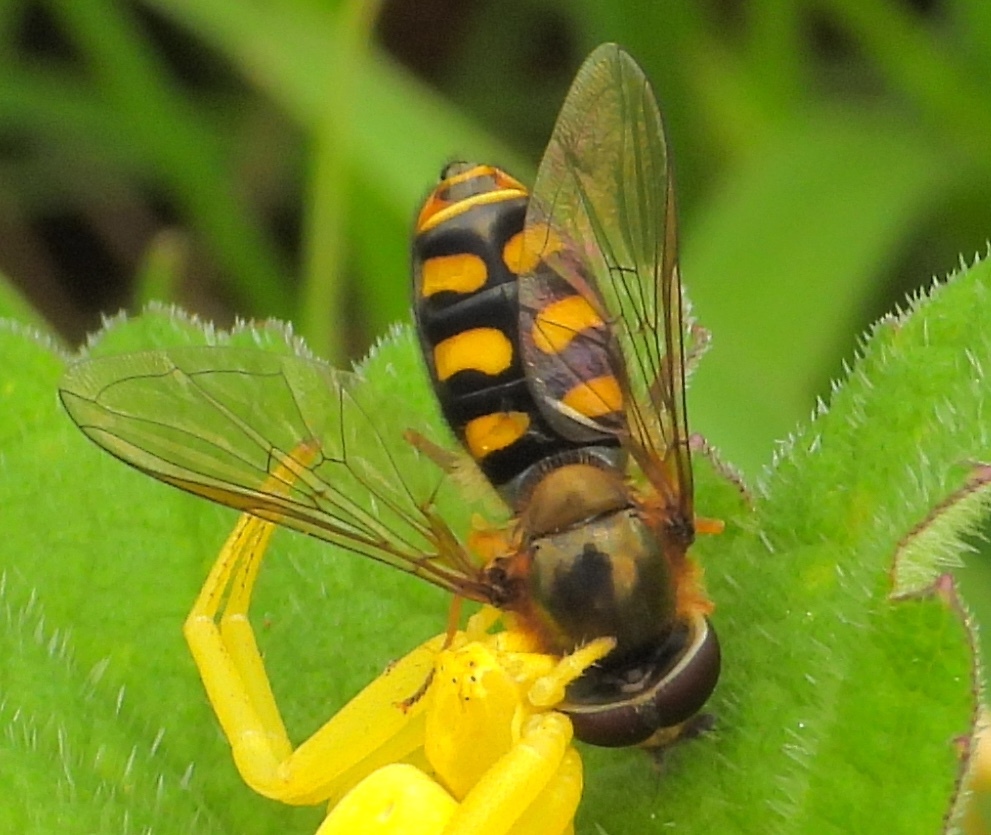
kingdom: Animalia
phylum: Arthropoda
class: Insecta
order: Diptera
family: Syrphidae
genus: Eupeodes
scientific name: Eupeodes
